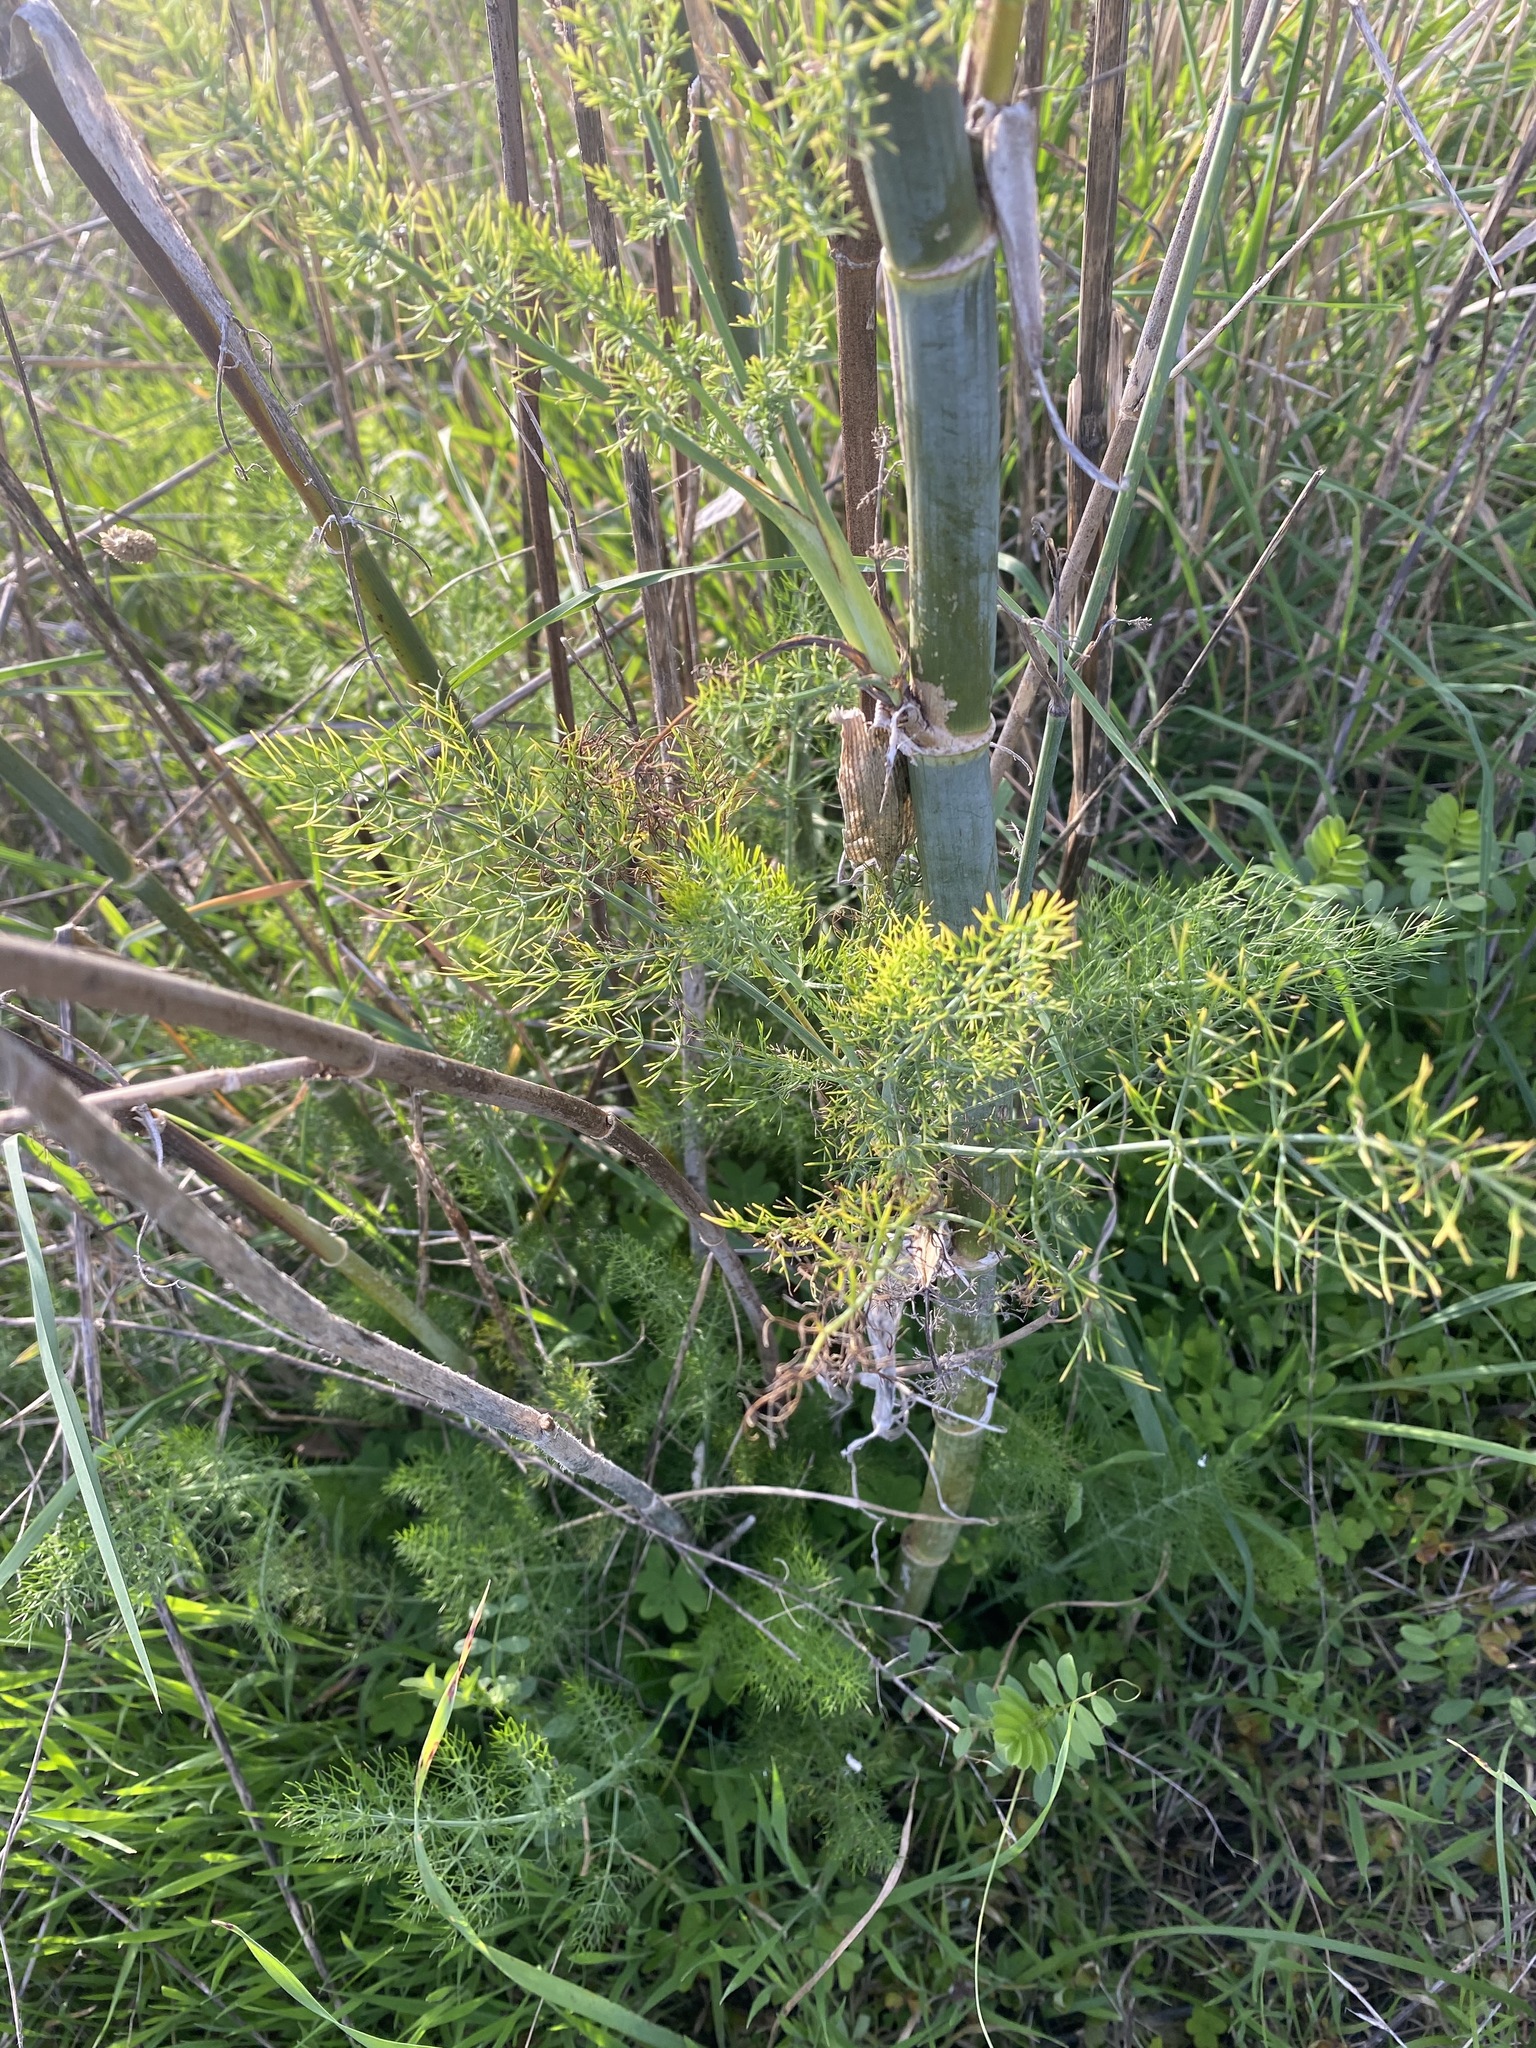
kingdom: Plantae
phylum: Tracheophyta
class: Magnoliopsida
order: Apiales
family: Apiaceae
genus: Foeniculum
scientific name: Foeniculum vulgare
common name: Fennel
